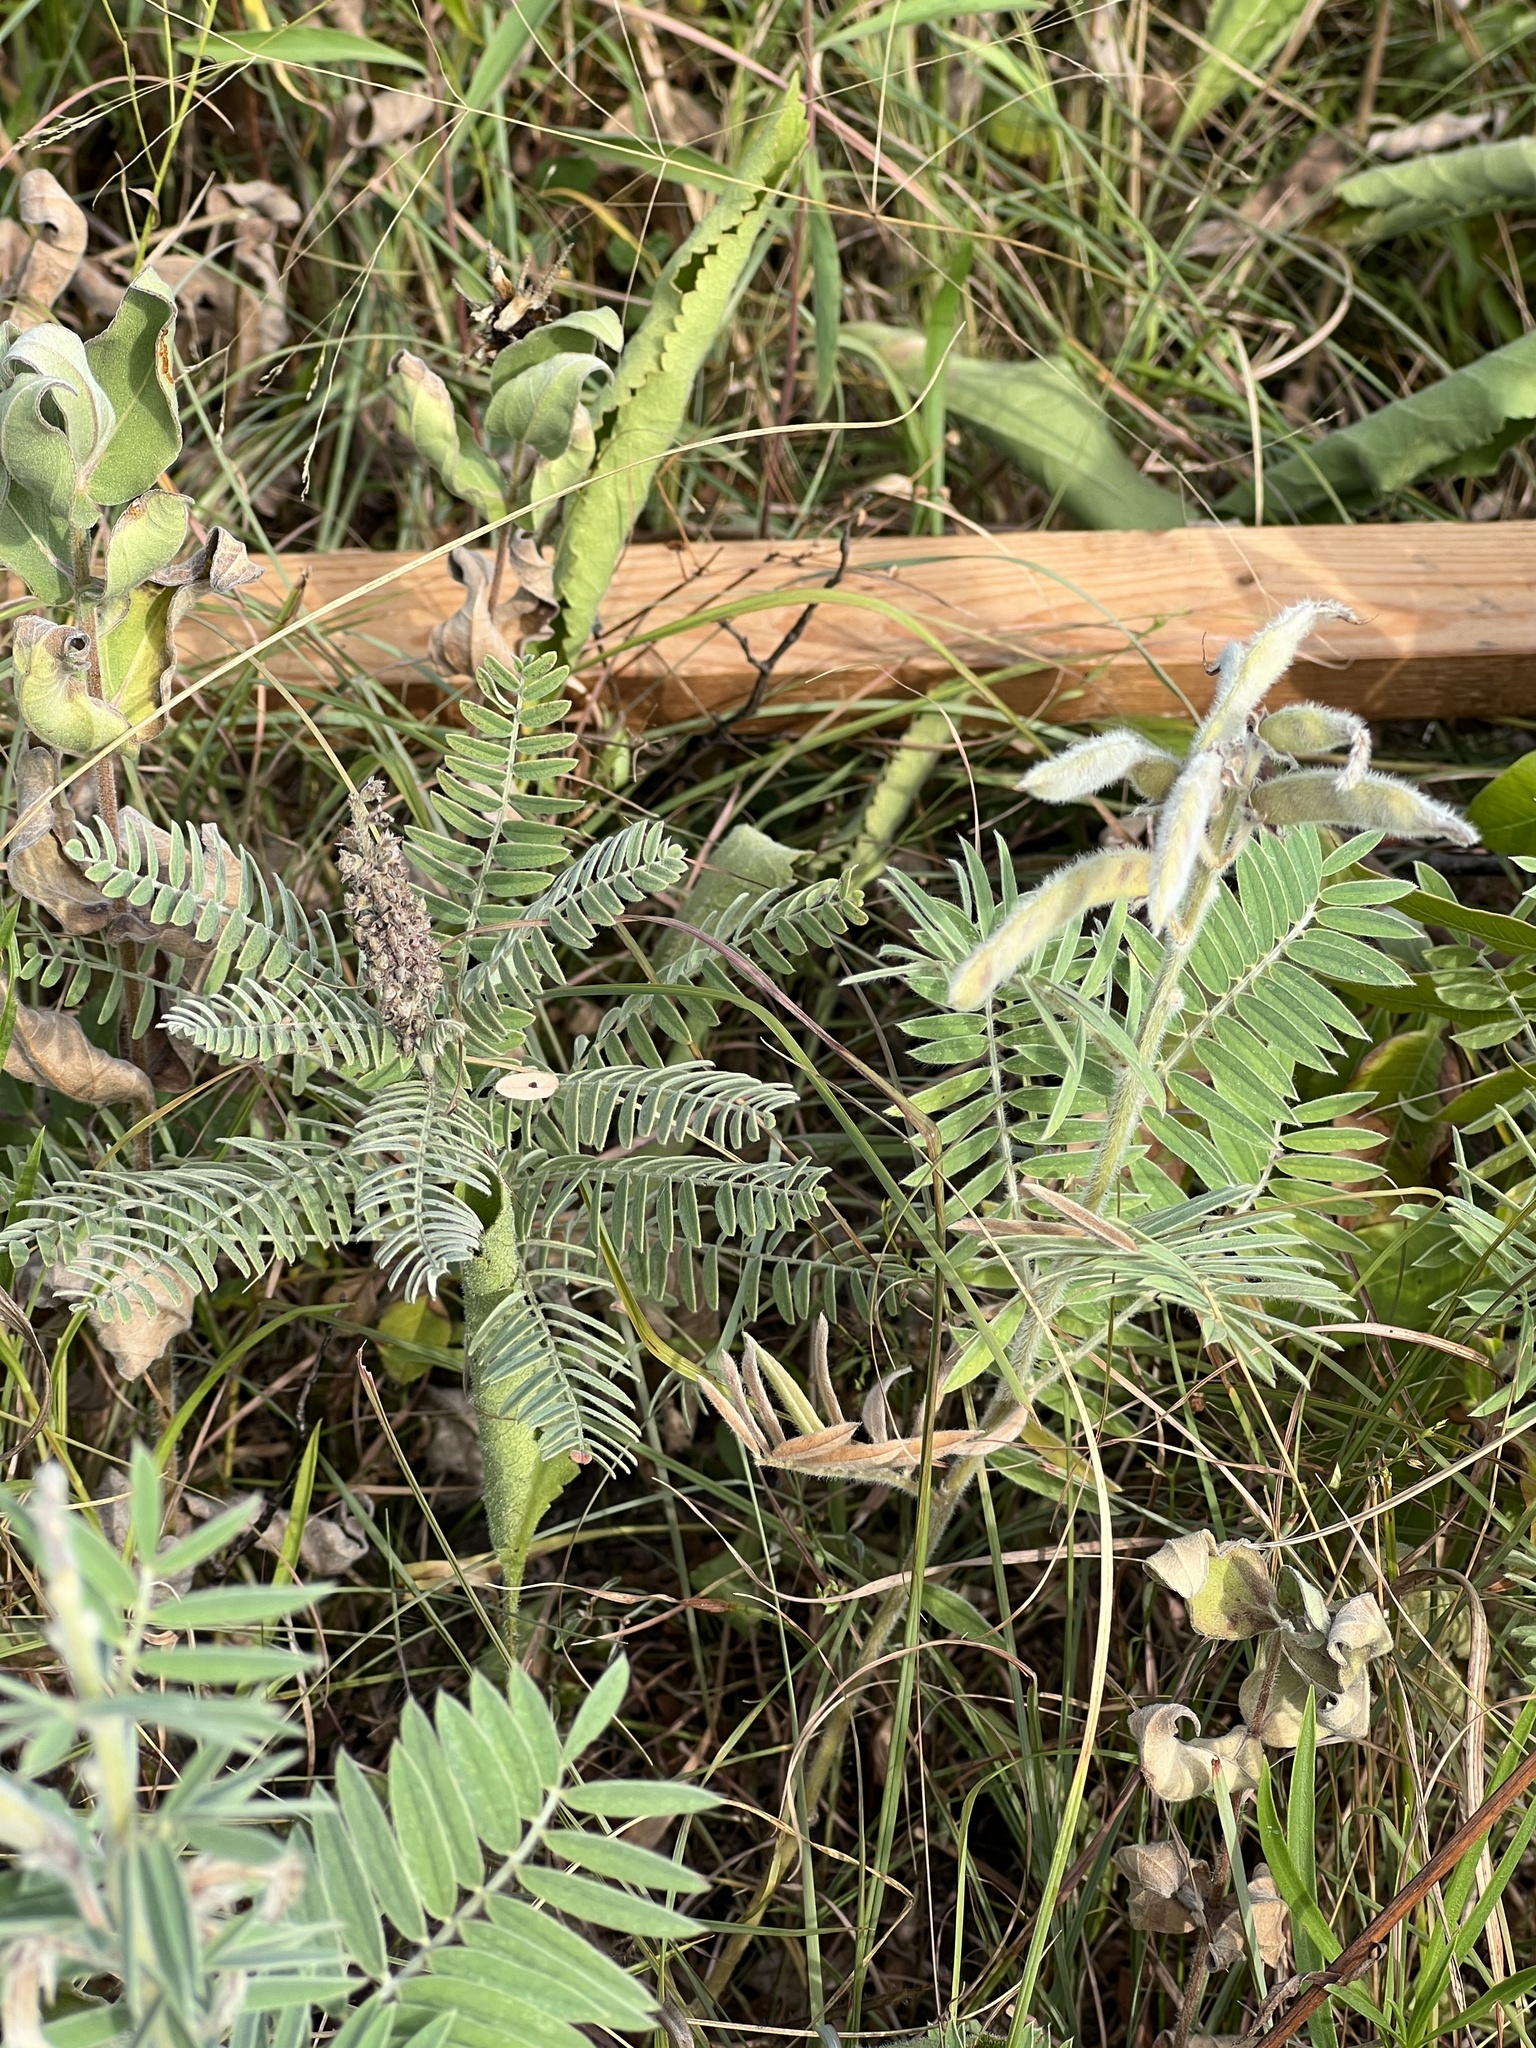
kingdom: Plantae
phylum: Tracheophyta
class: Magnoliopsida
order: Fabales
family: Fabaceae
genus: Amorpha
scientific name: Amorpha canescens
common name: Leadplant
